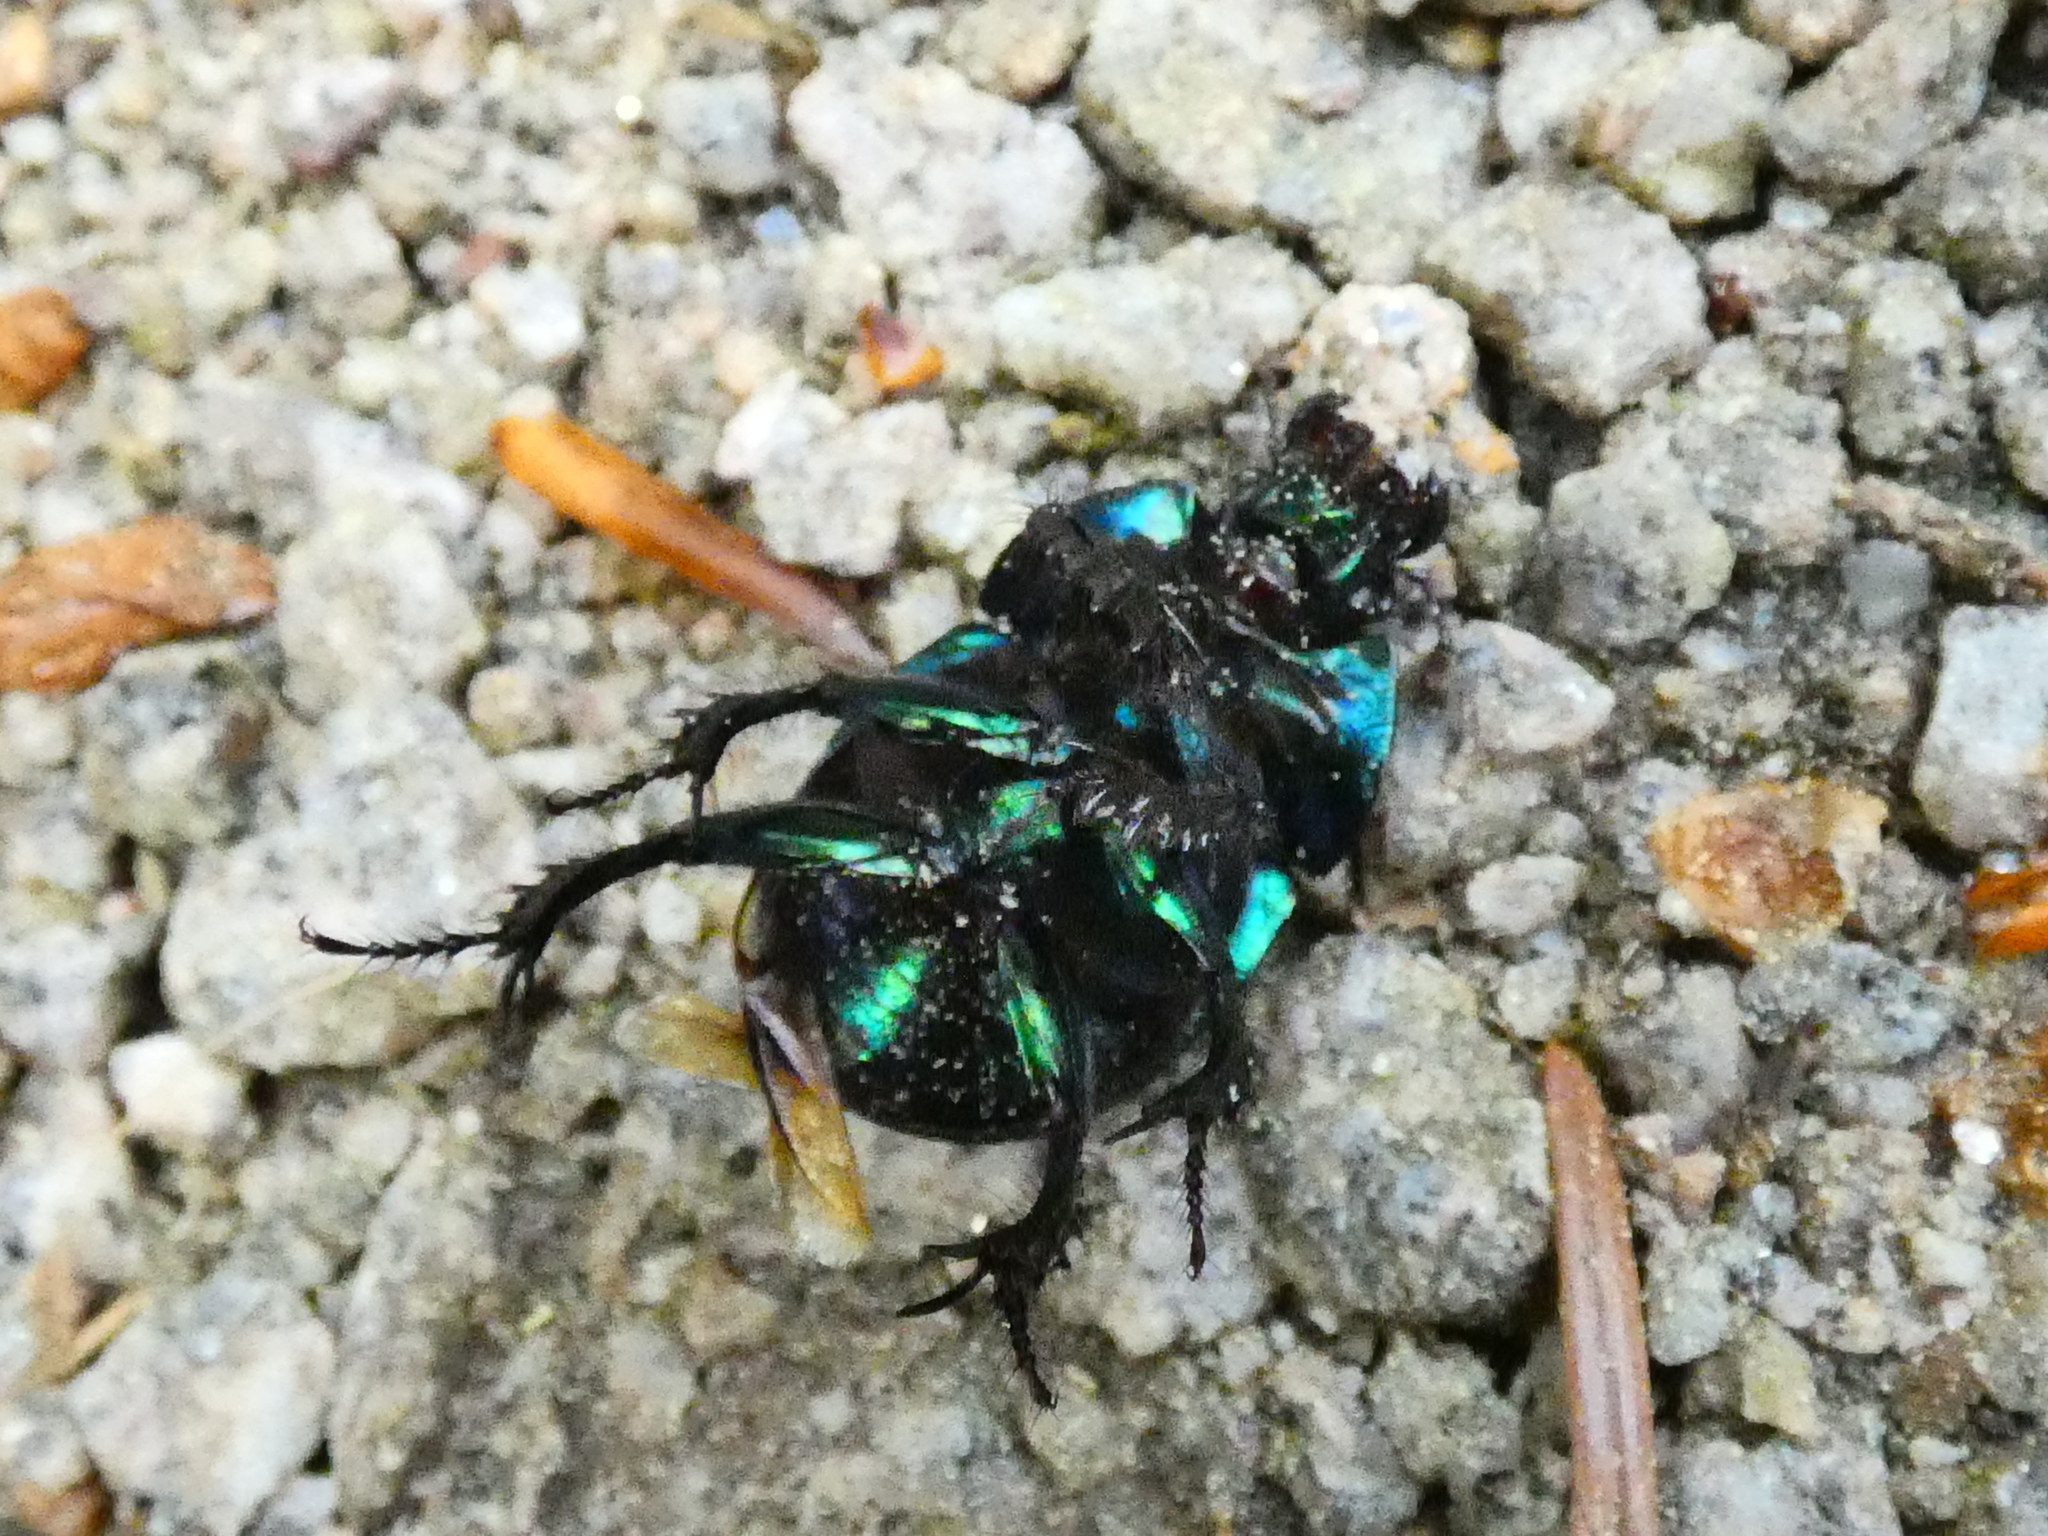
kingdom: Animalia
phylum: Arthropoda
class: Insecta
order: Coleoptera
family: Geotrupidae
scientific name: Geotrupidae
